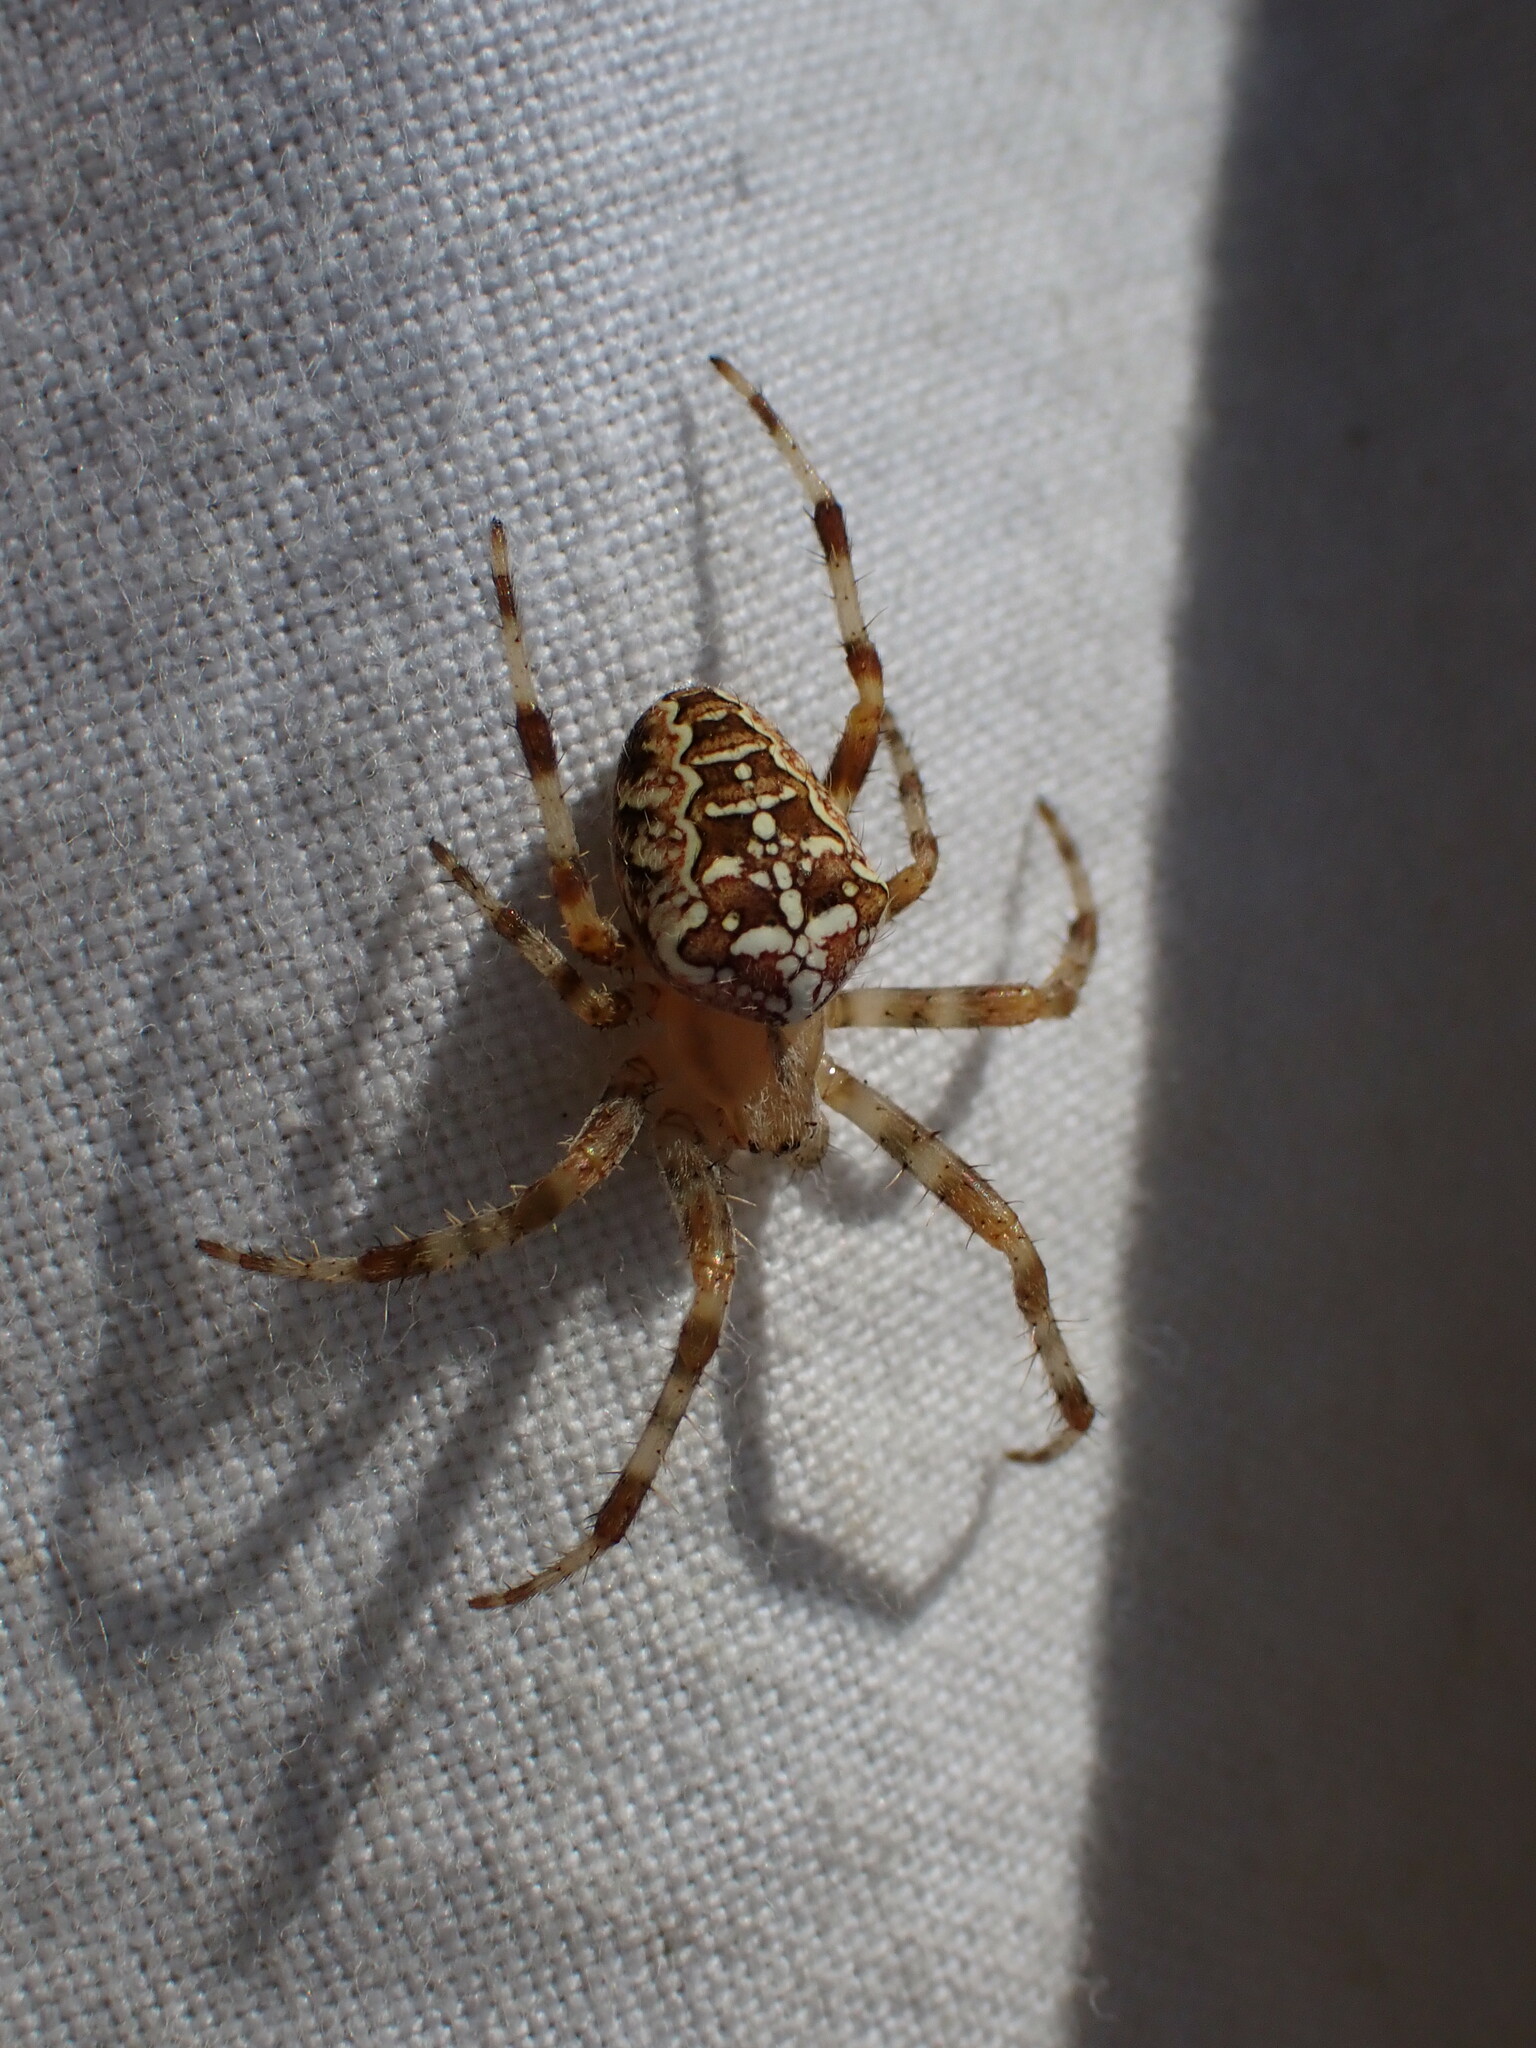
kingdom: Animalia
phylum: Arthropoda
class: Arachnida
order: Araneae
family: Araneidae
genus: Araneus
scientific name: Araneus diadematus
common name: Cross orbweaver
